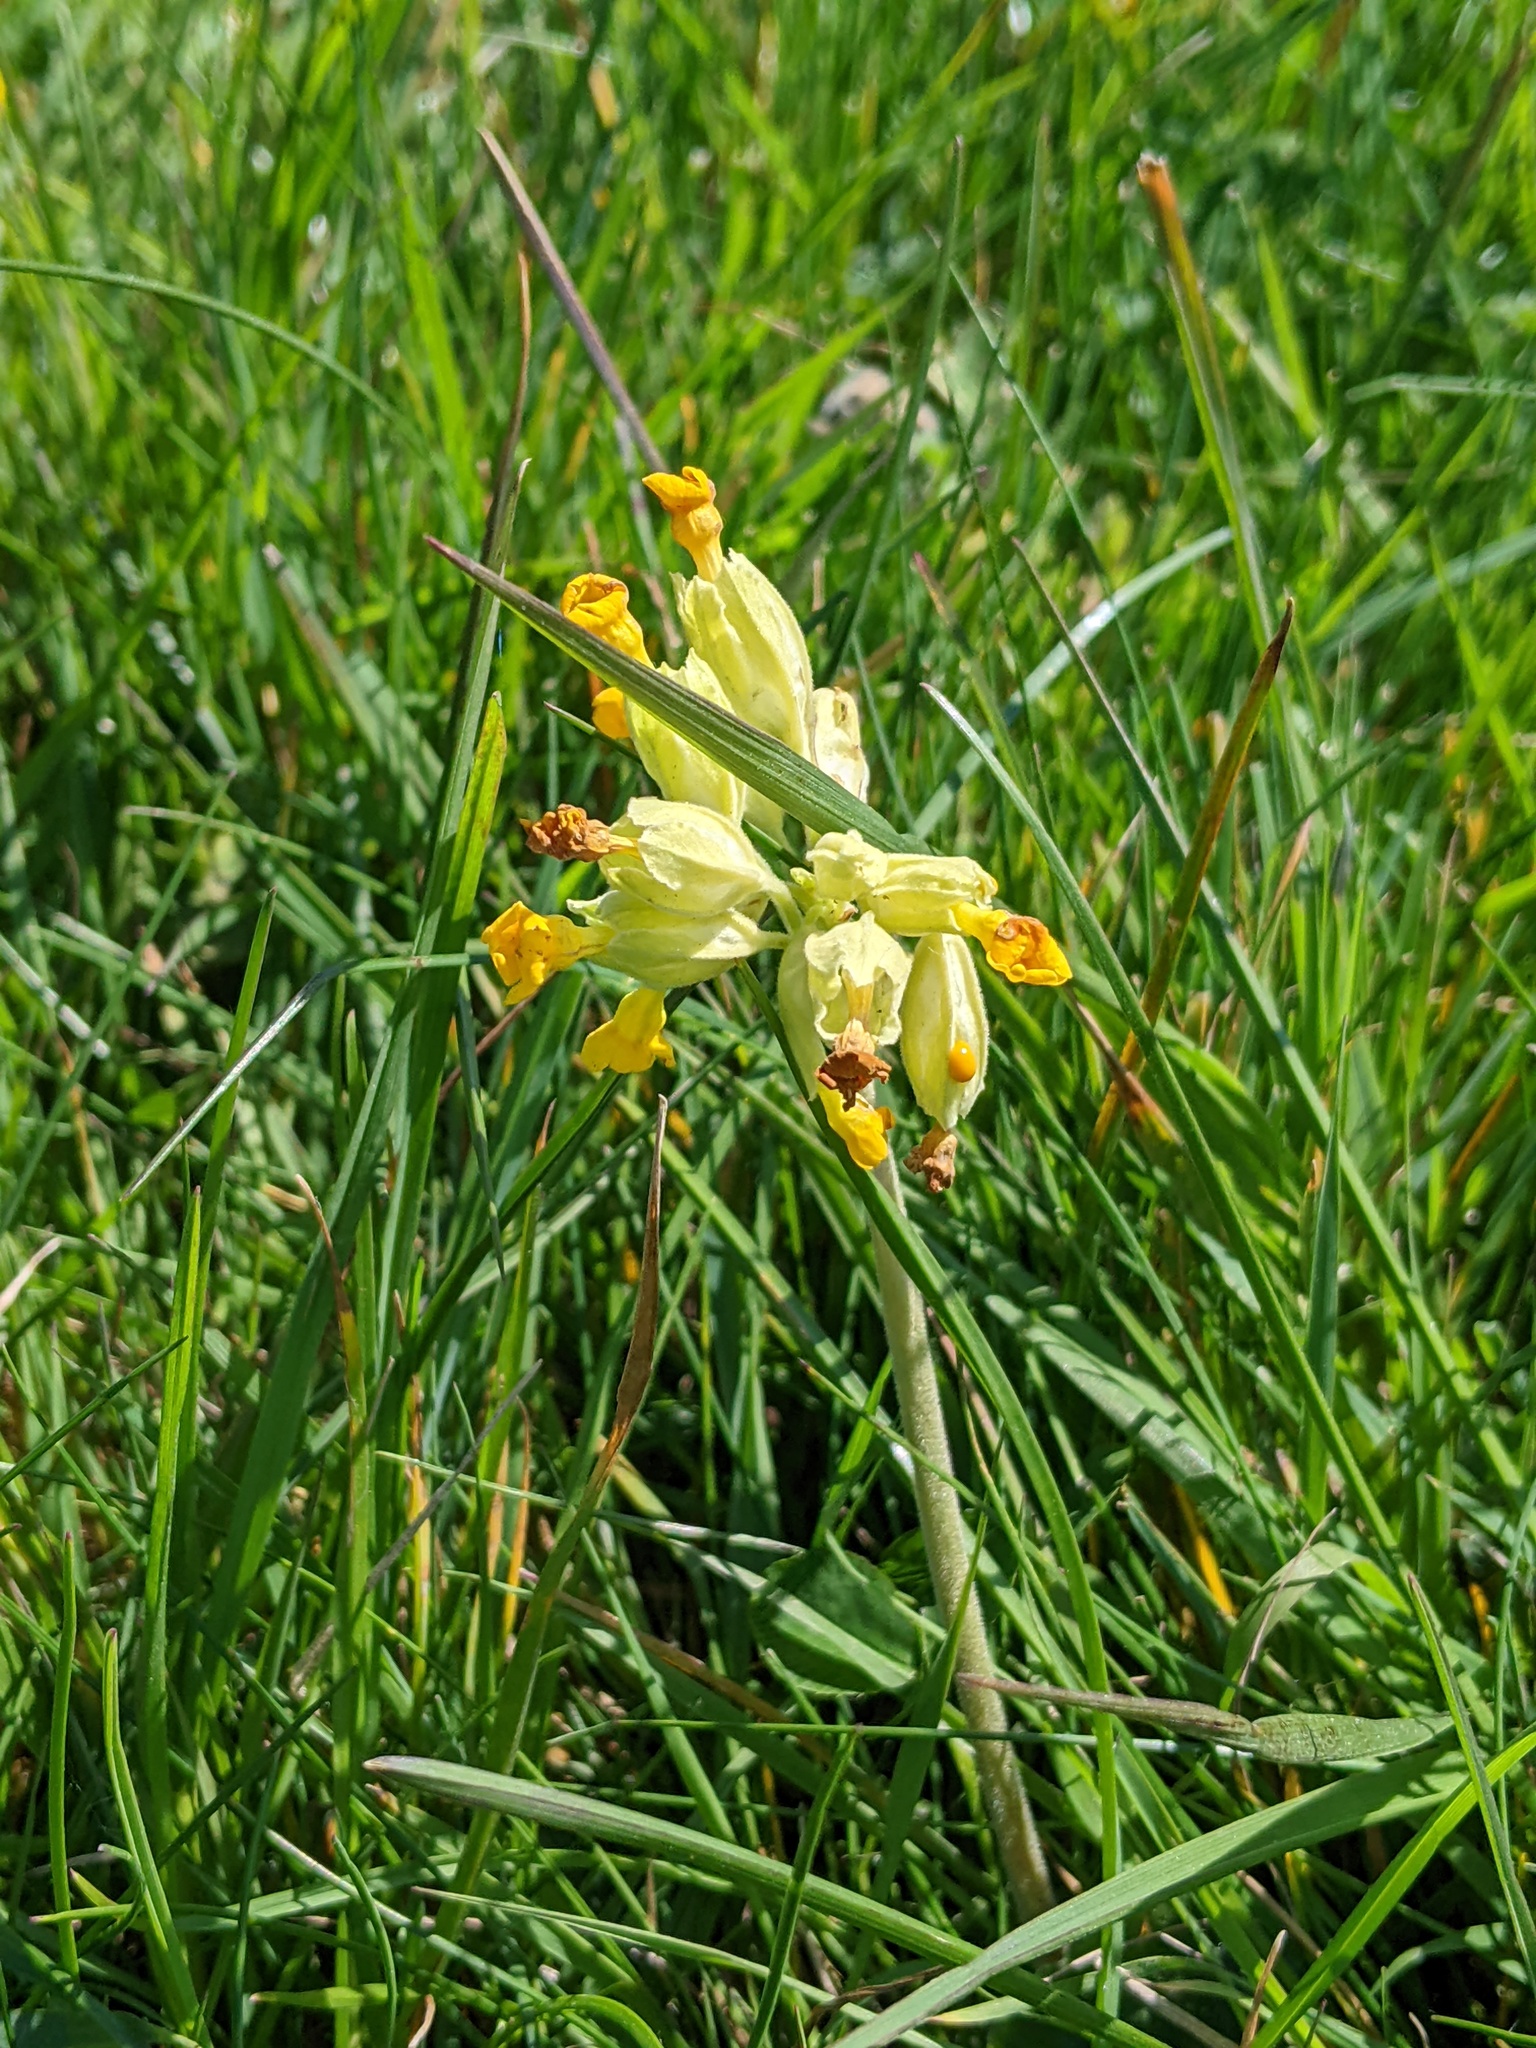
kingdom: Plantae
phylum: Tracheophyta
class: Magnoliopsida
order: Ericales
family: Primulaceae
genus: Primula
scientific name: Primula veris
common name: Cowslip
